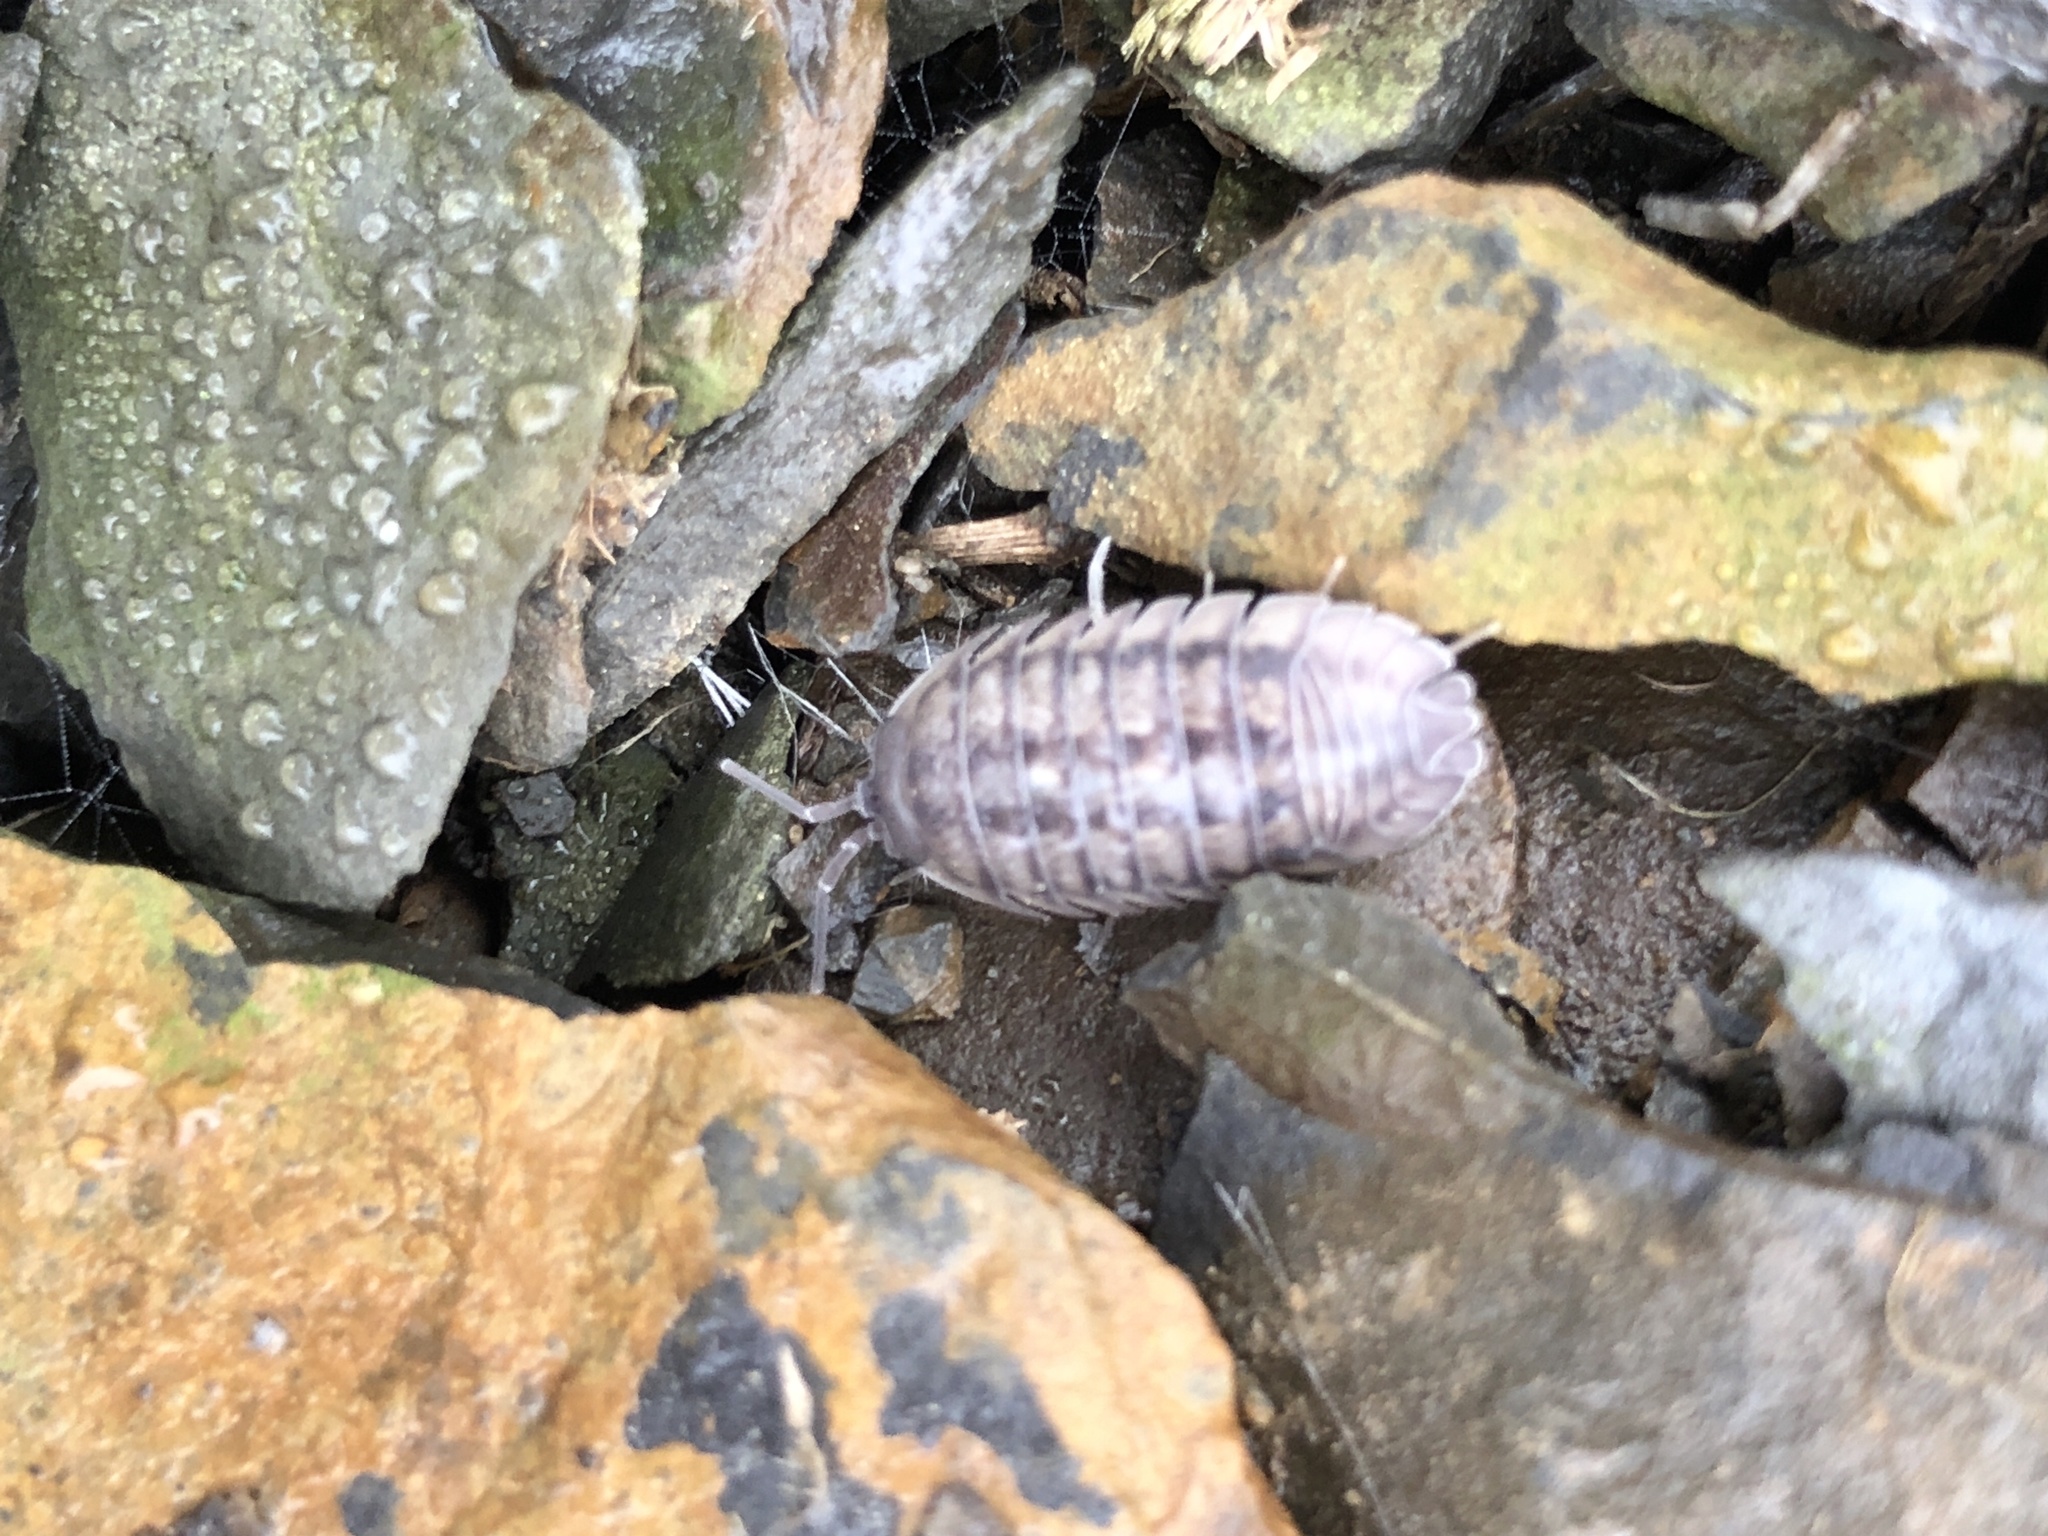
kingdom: Animalia
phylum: Arthropoda
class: Malacostraca
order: Isopoda
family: Armadillidiidae
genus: Armadillidium
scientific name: Armadillidium nasatum
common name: Isopod
